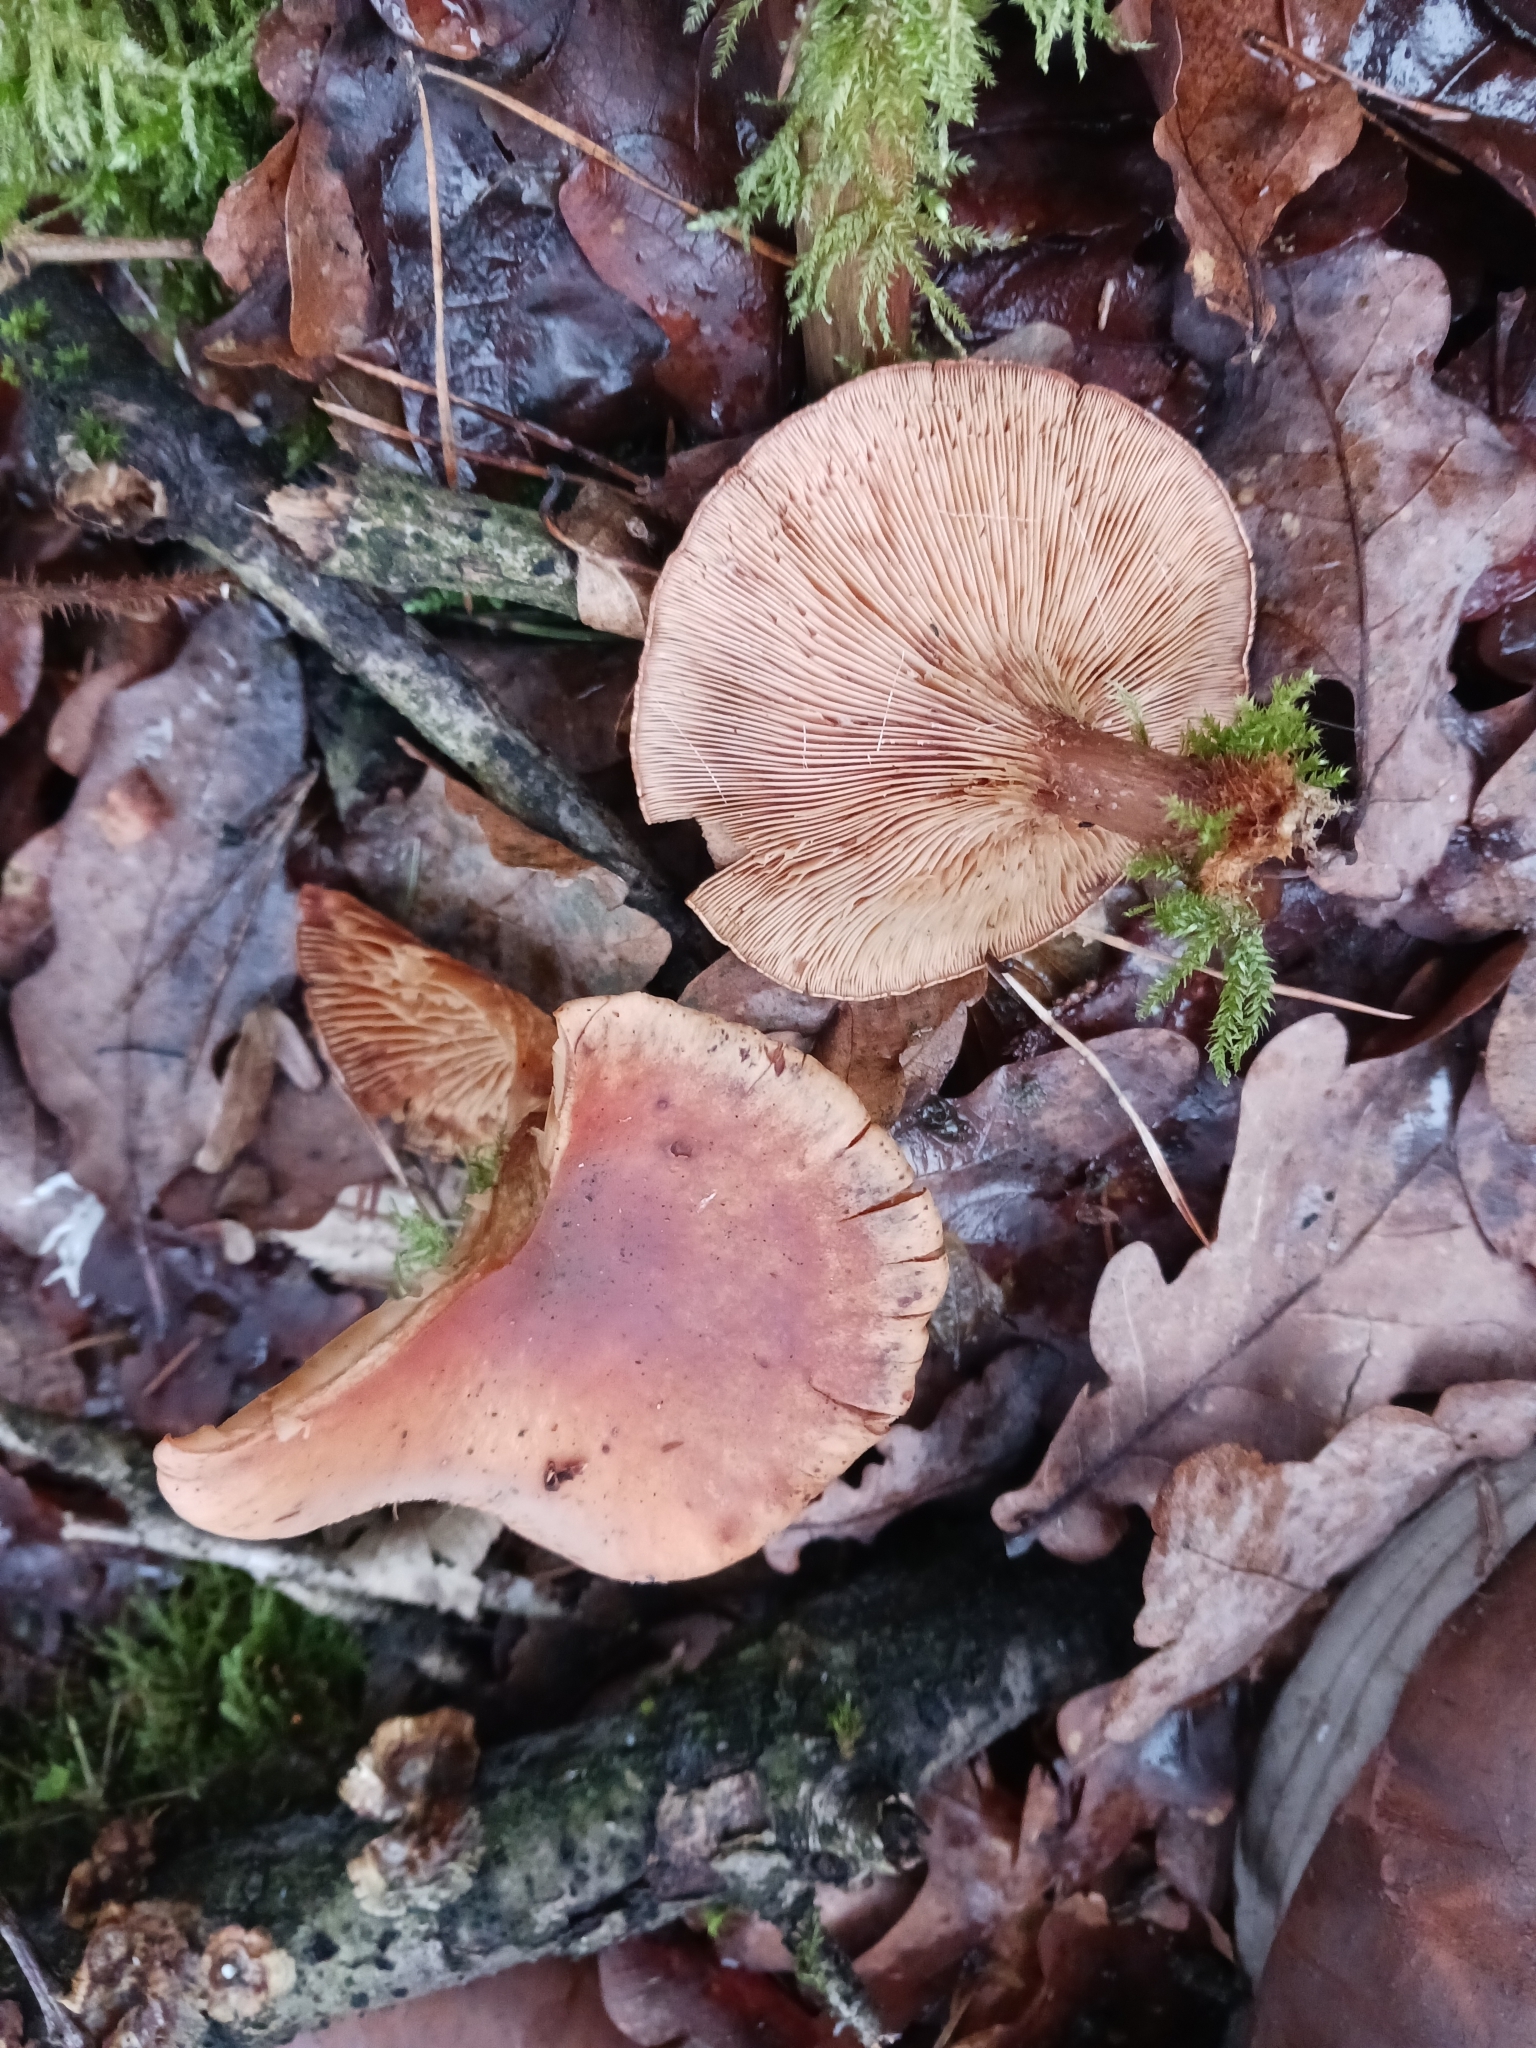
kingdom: Fungi
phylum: Basidiomycota
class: Agaricomycetes
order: Agaricales
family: Tricholomataceae
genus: Paralepista
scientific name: Paralepista flaccida
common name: Tawny funnel cap
